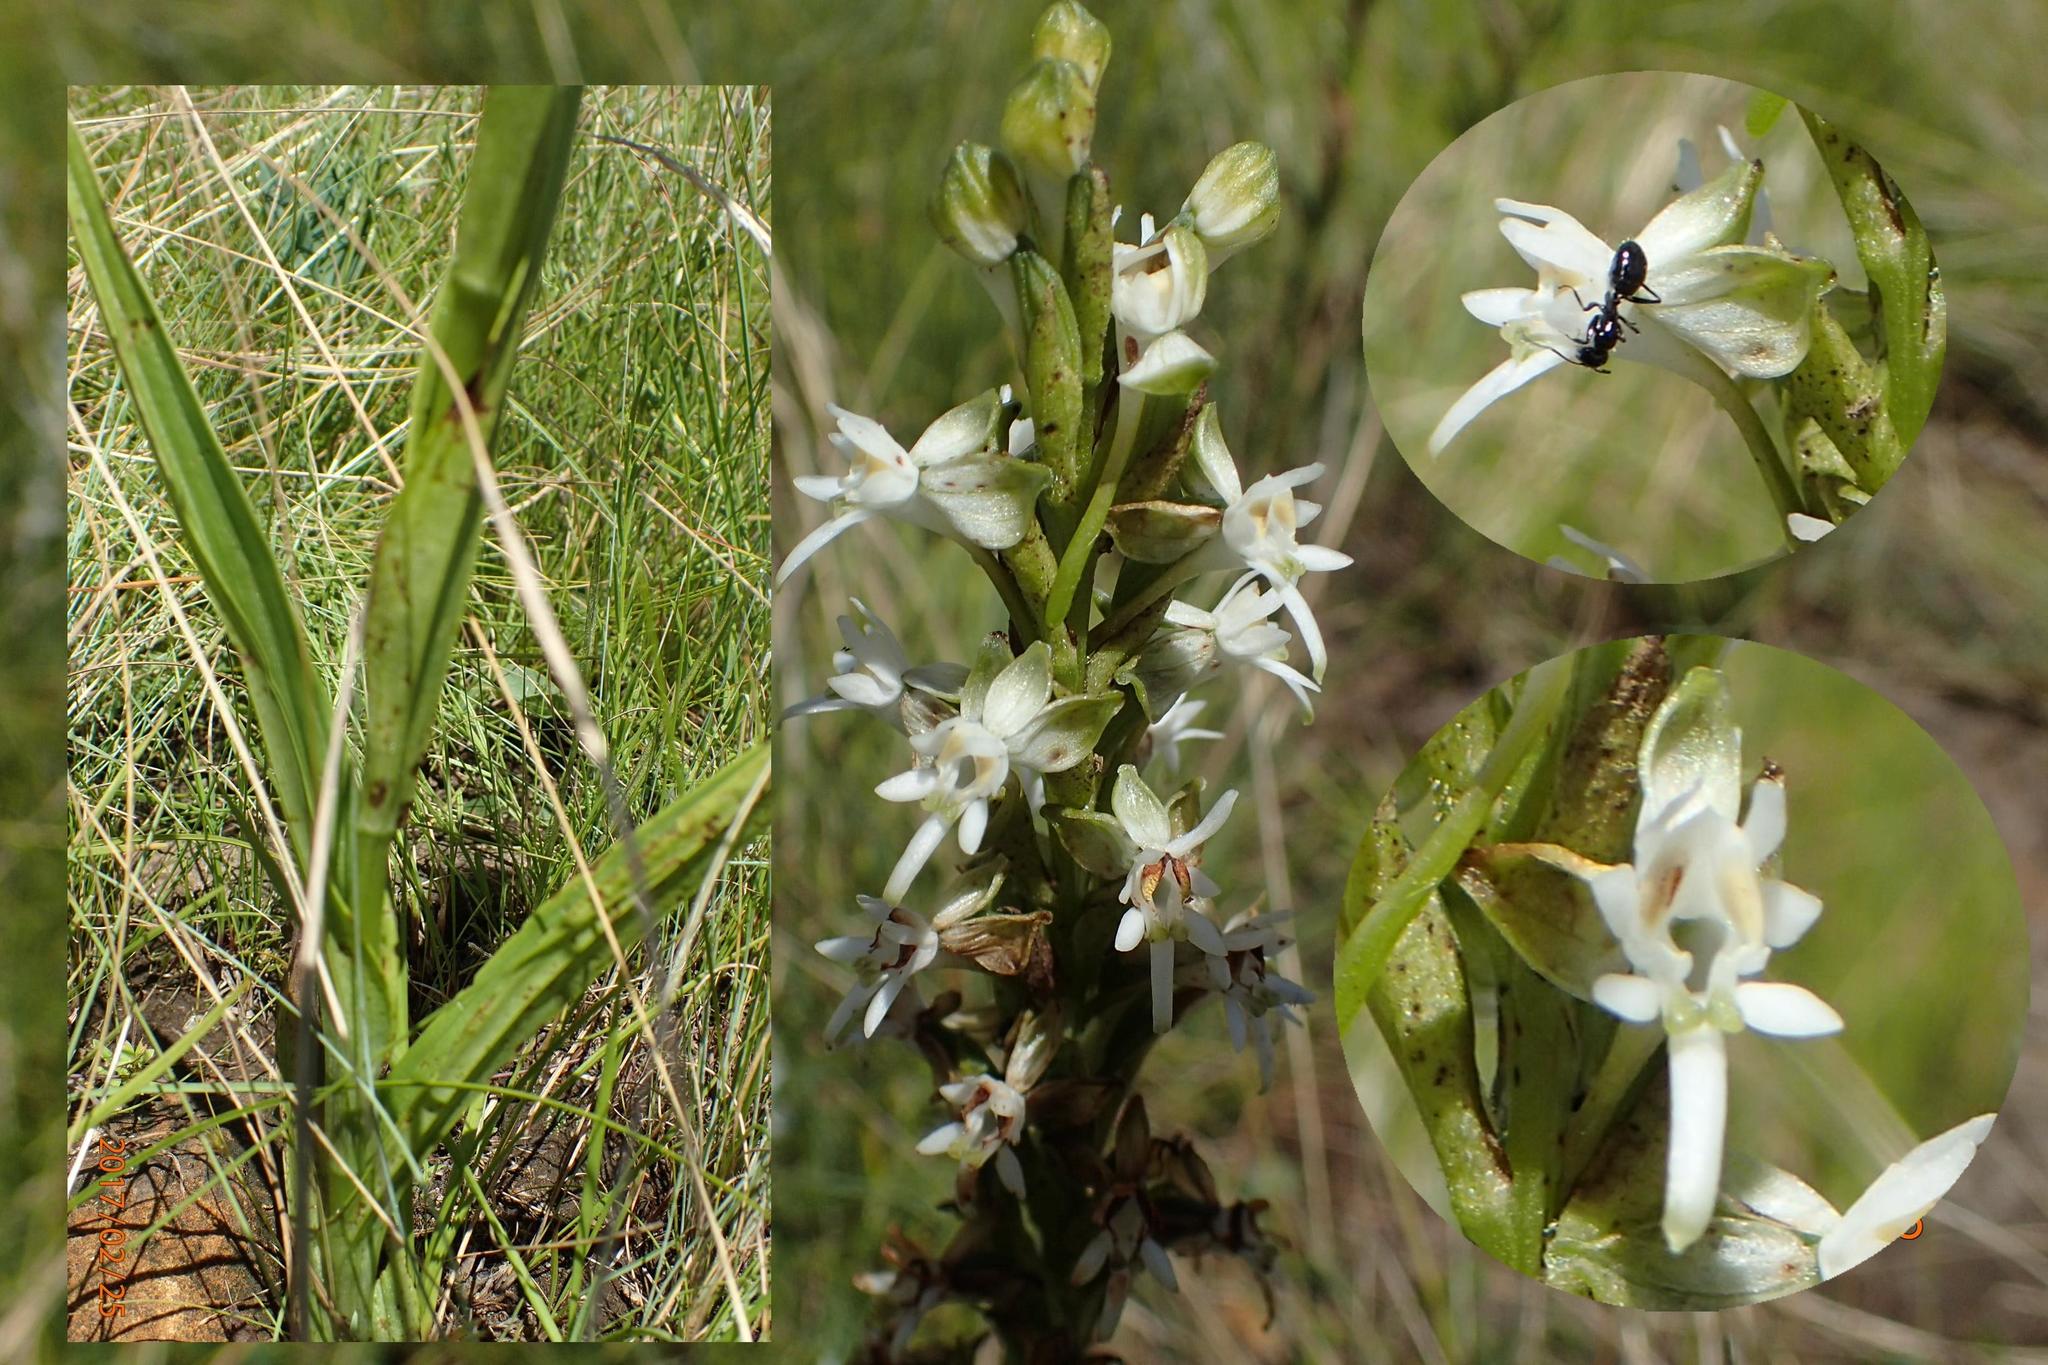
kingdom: Plantae
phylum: Tracheophyta
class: Liliopsida
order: Asparagales
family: Orchidaceae
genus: Habenaria
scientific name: Habenaria dives
